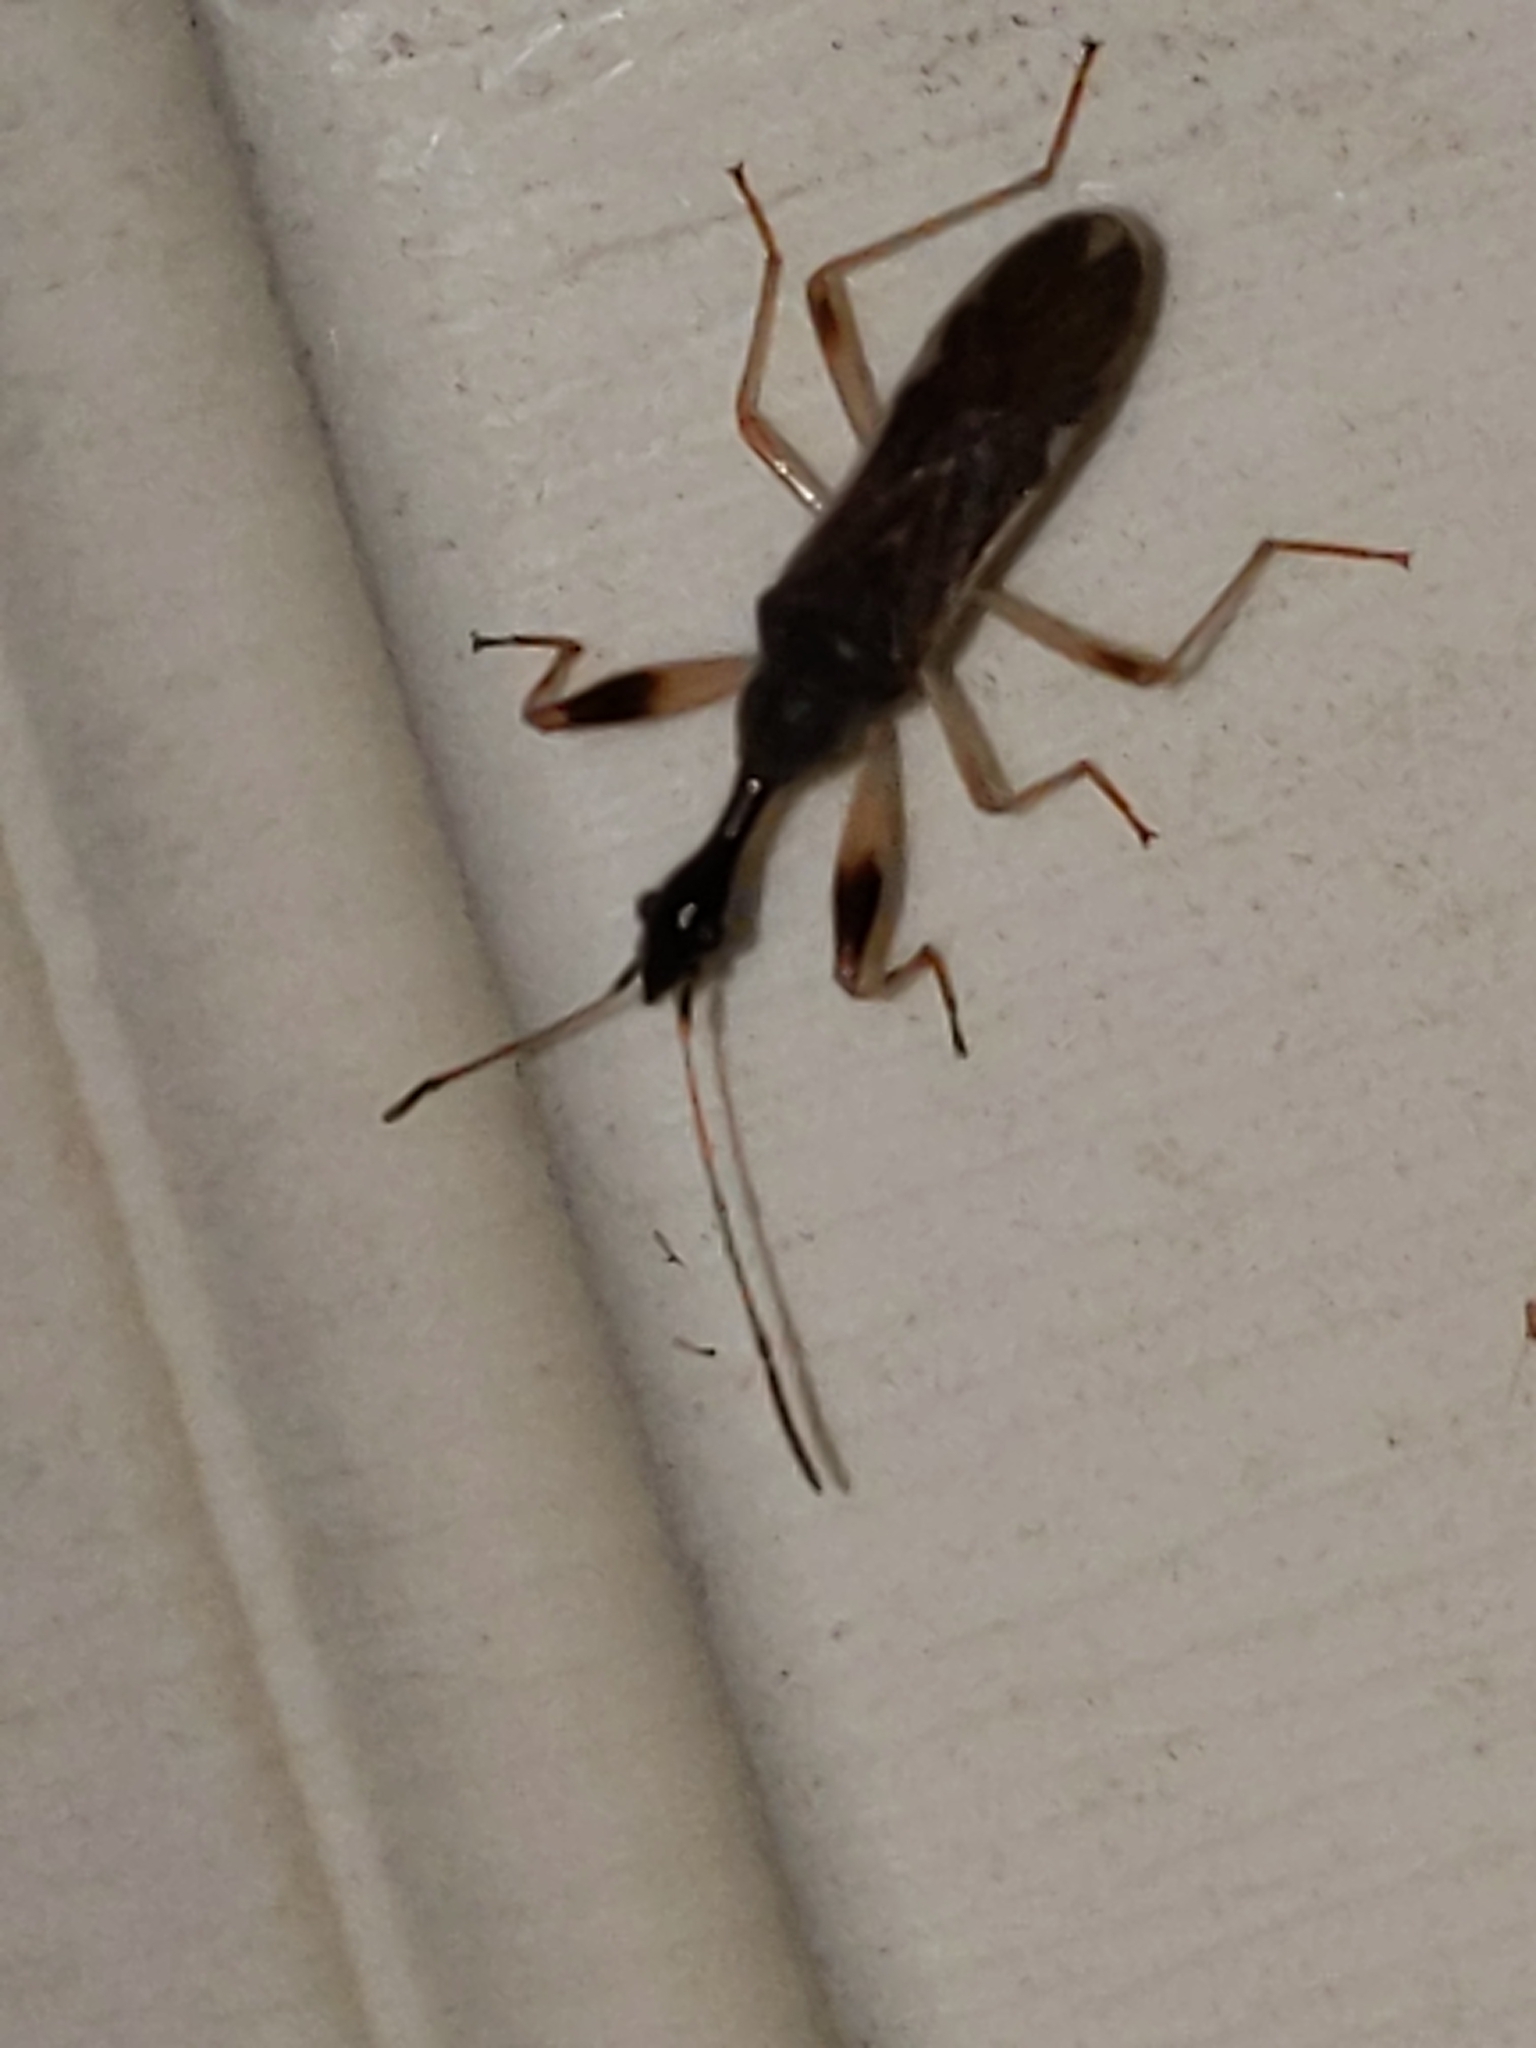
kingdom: Animalia
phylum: Arthropoda
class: Insecta
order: Hemiptera
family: Rhyparochromidae
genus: Myodocha
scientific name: Myodocha serripes
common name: Long-necked seed bug
